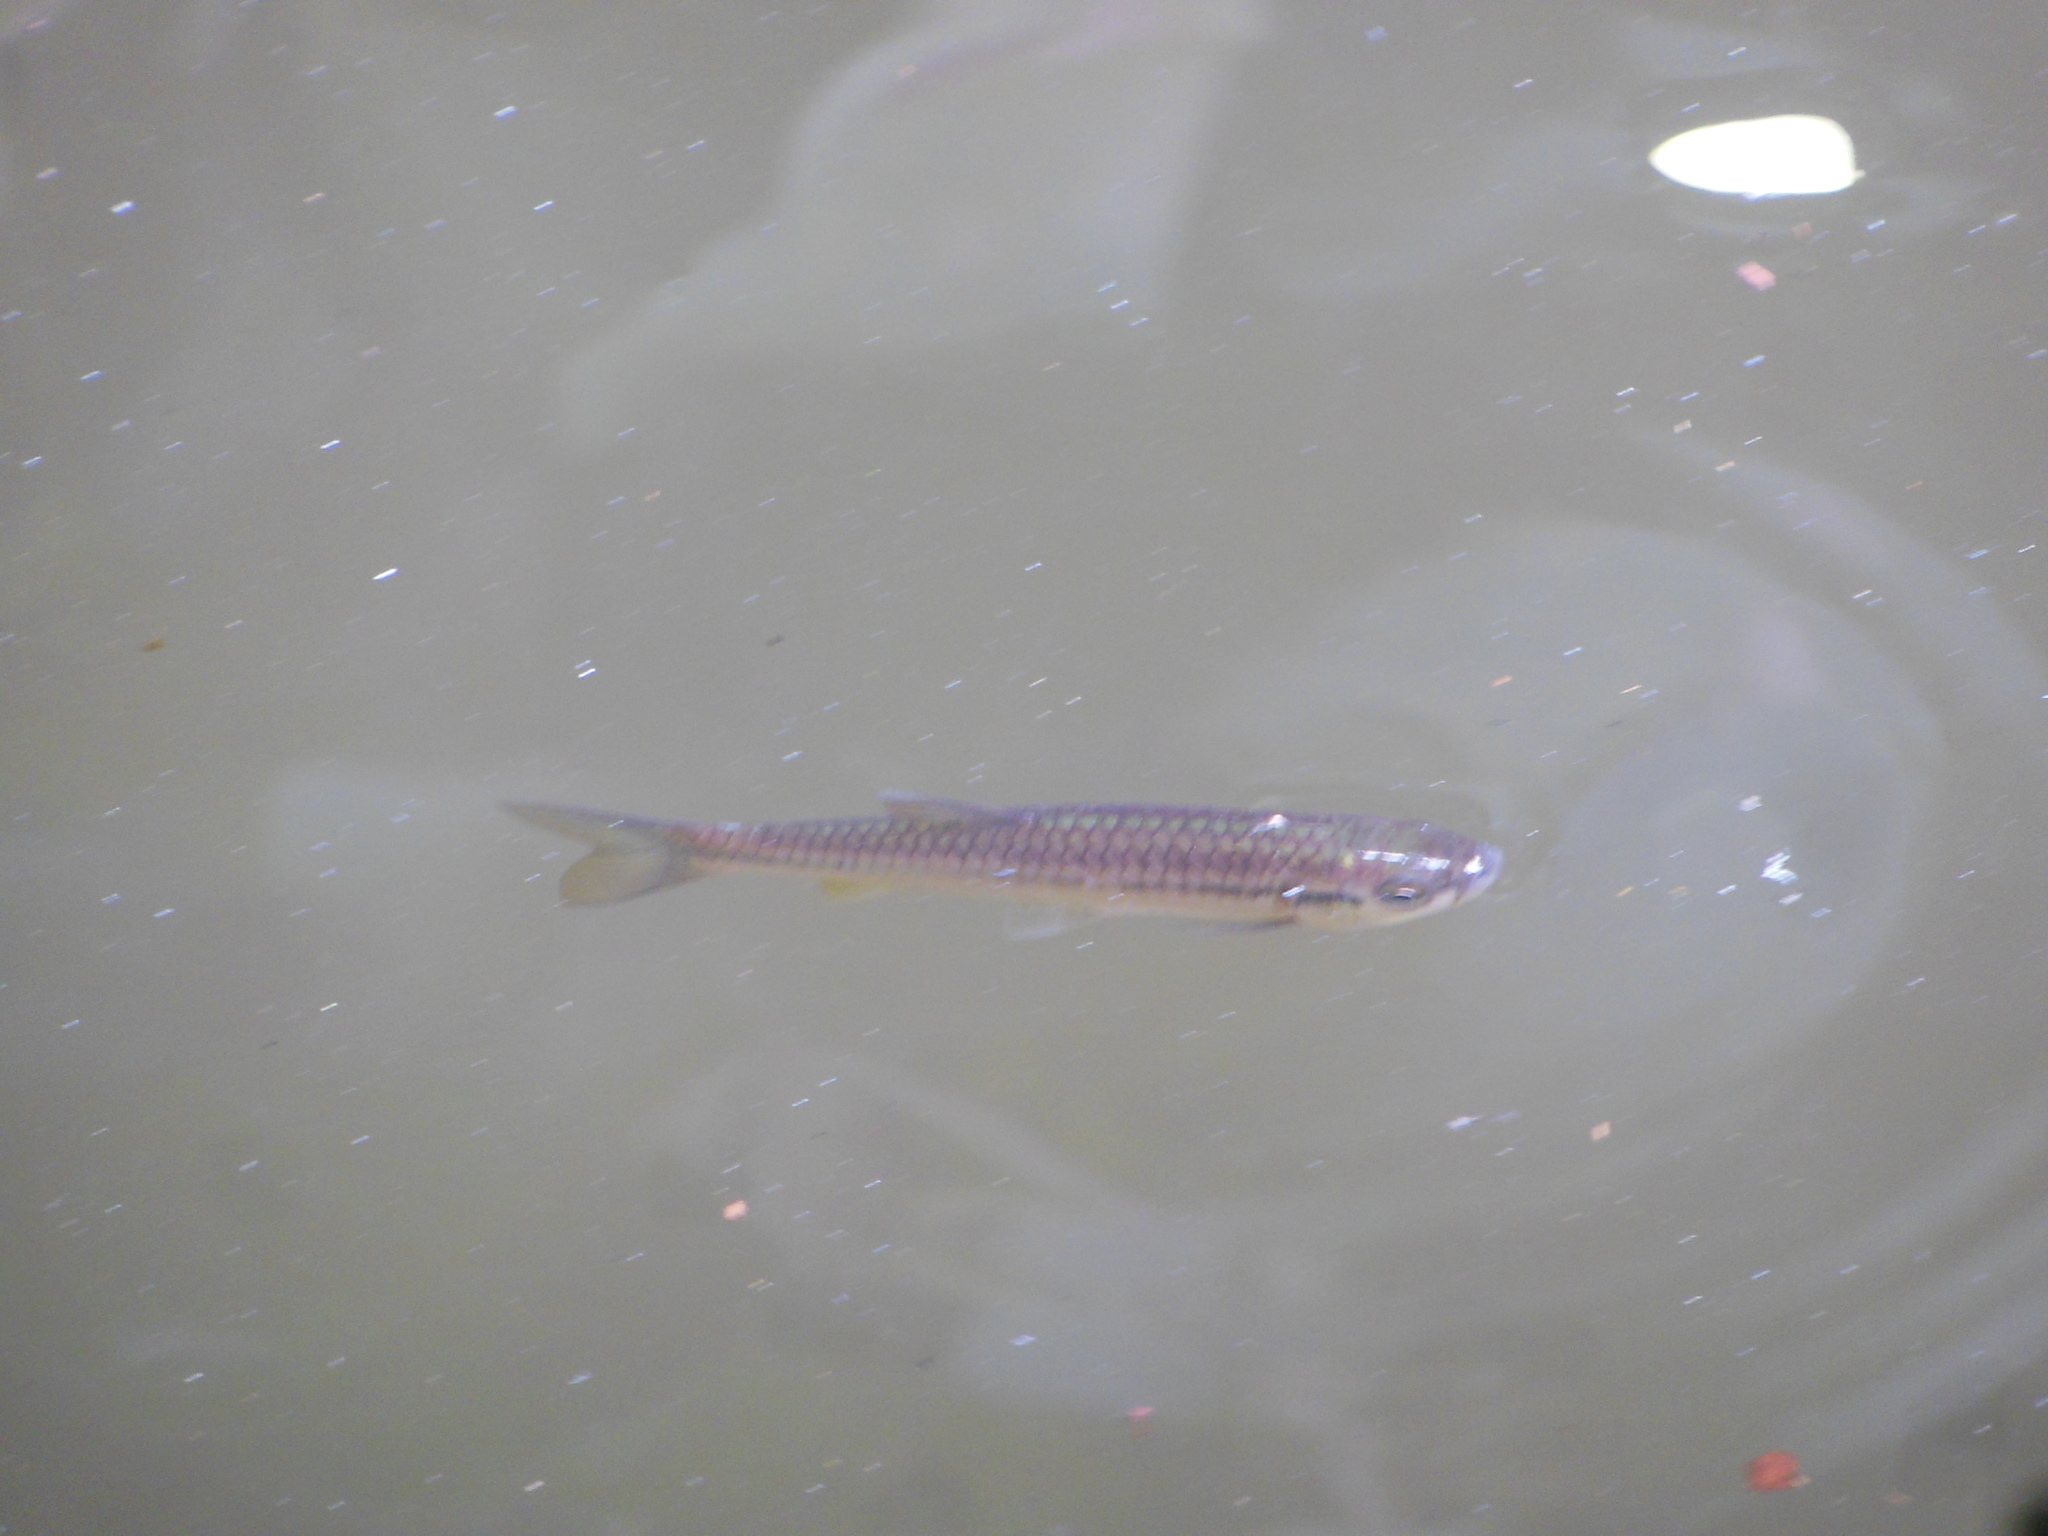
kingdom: Animalia
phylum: Chordata
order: Cypriniformes
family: Cyprinidae
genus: Rasbora
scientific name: Rasbora daniconius
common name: Common rasbora
